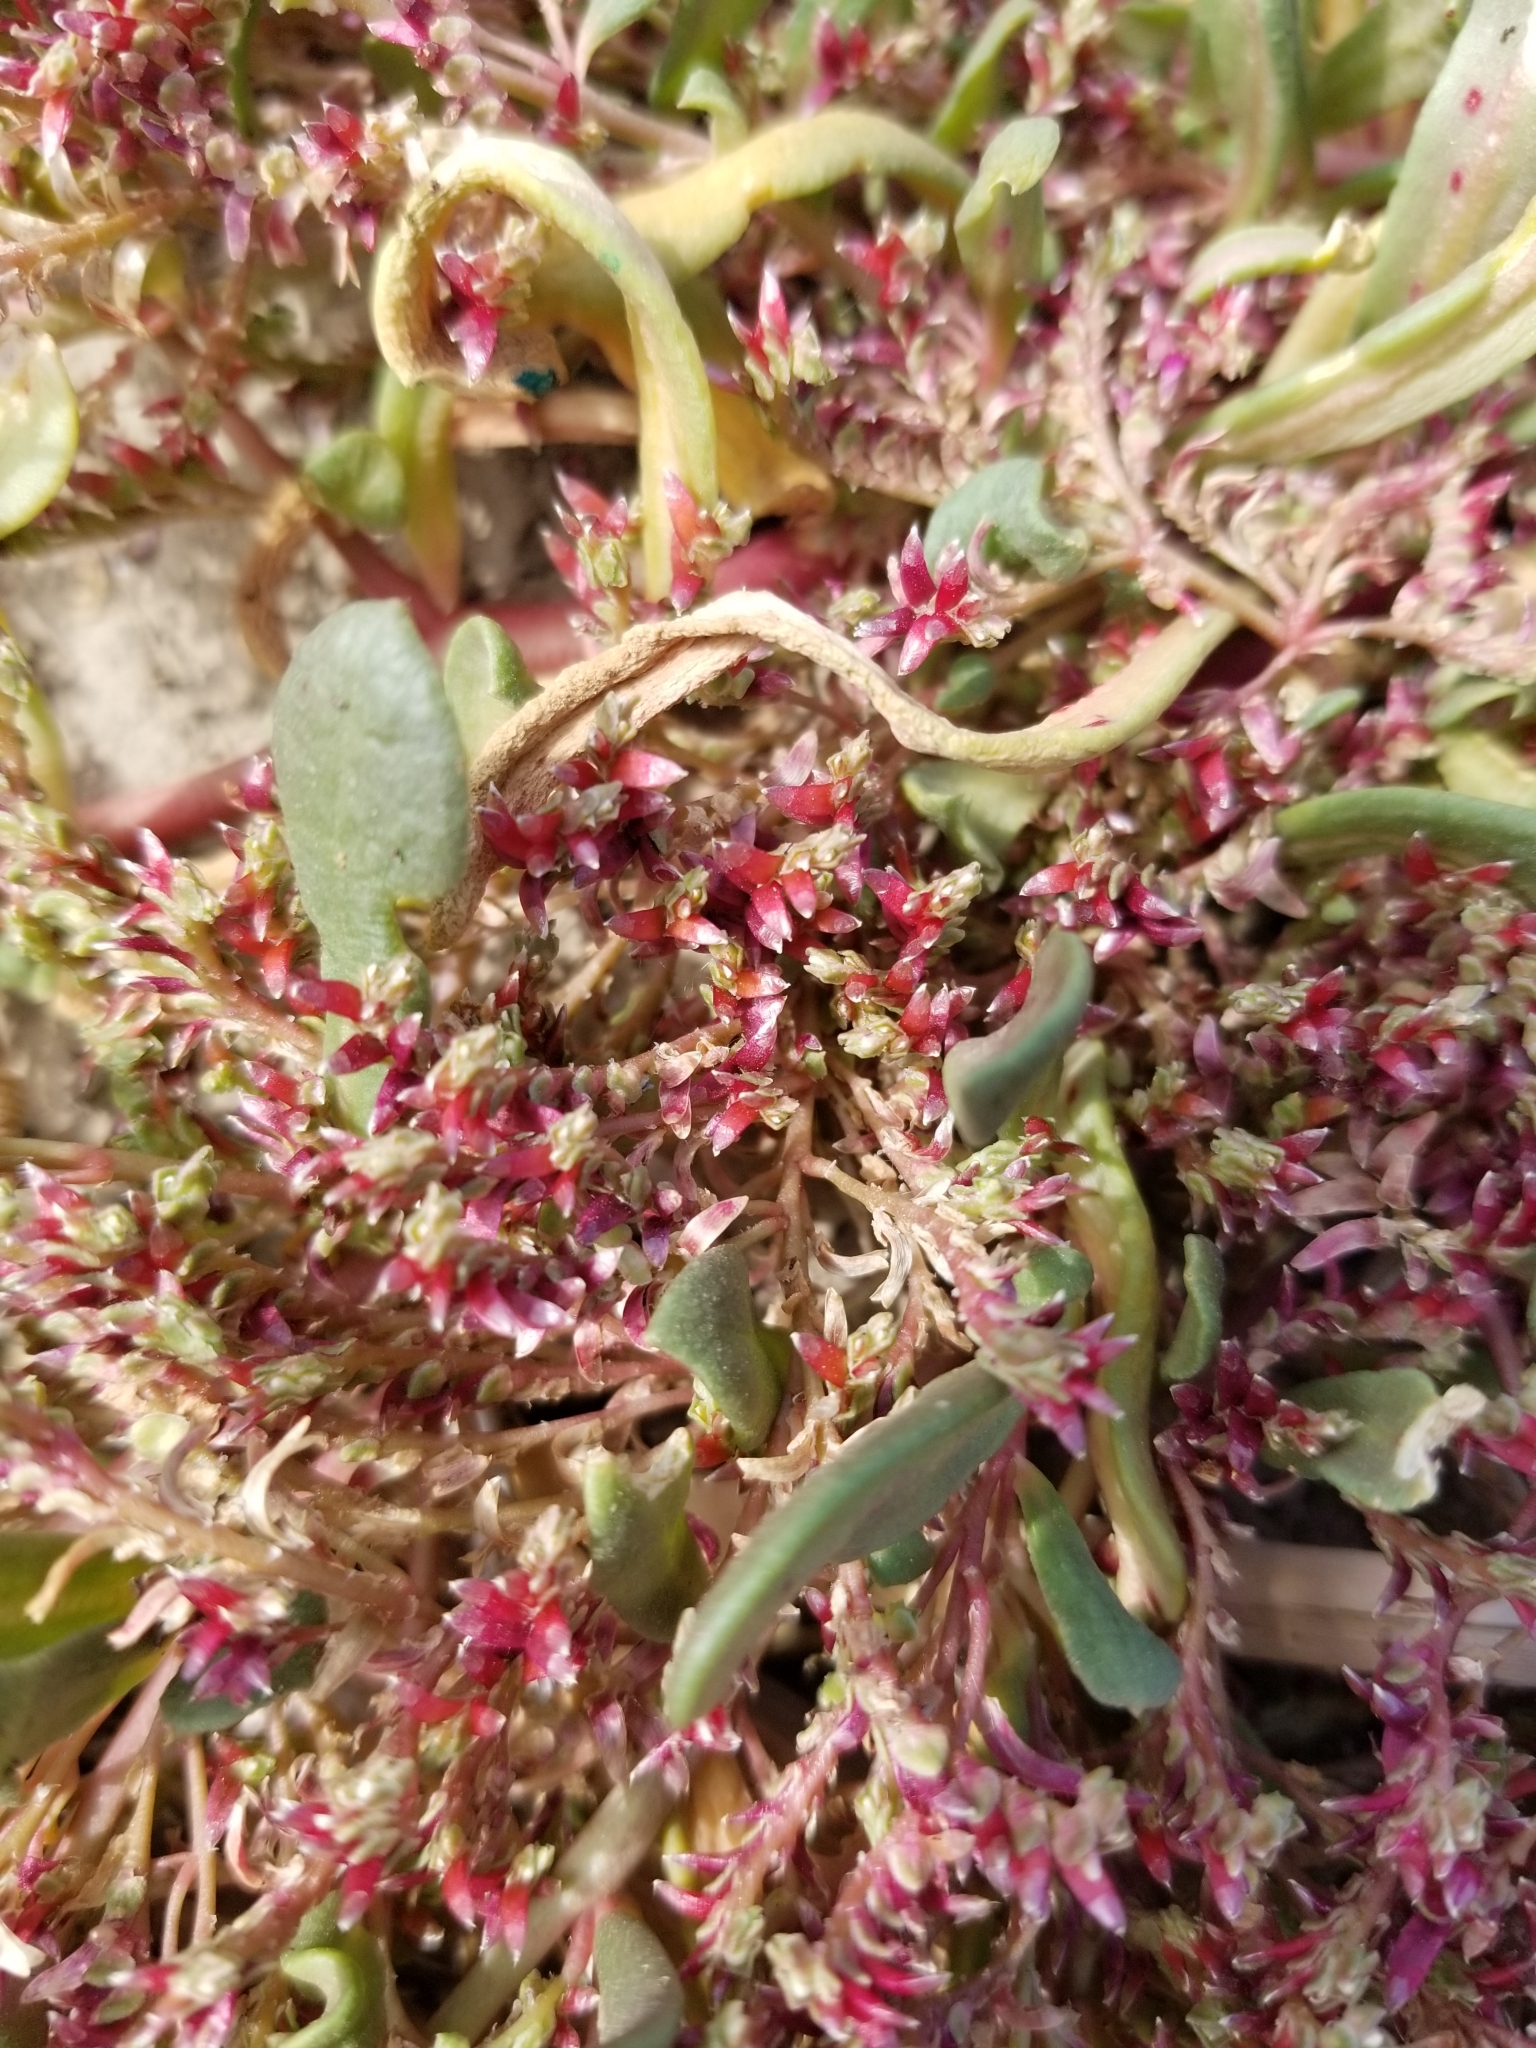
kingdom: Plantae
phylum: Tracheophyta
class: Magnoliopsida
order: Caryophyllales
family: Montiaceae
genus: Calyptridium
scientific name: Calyptridium monandrum
